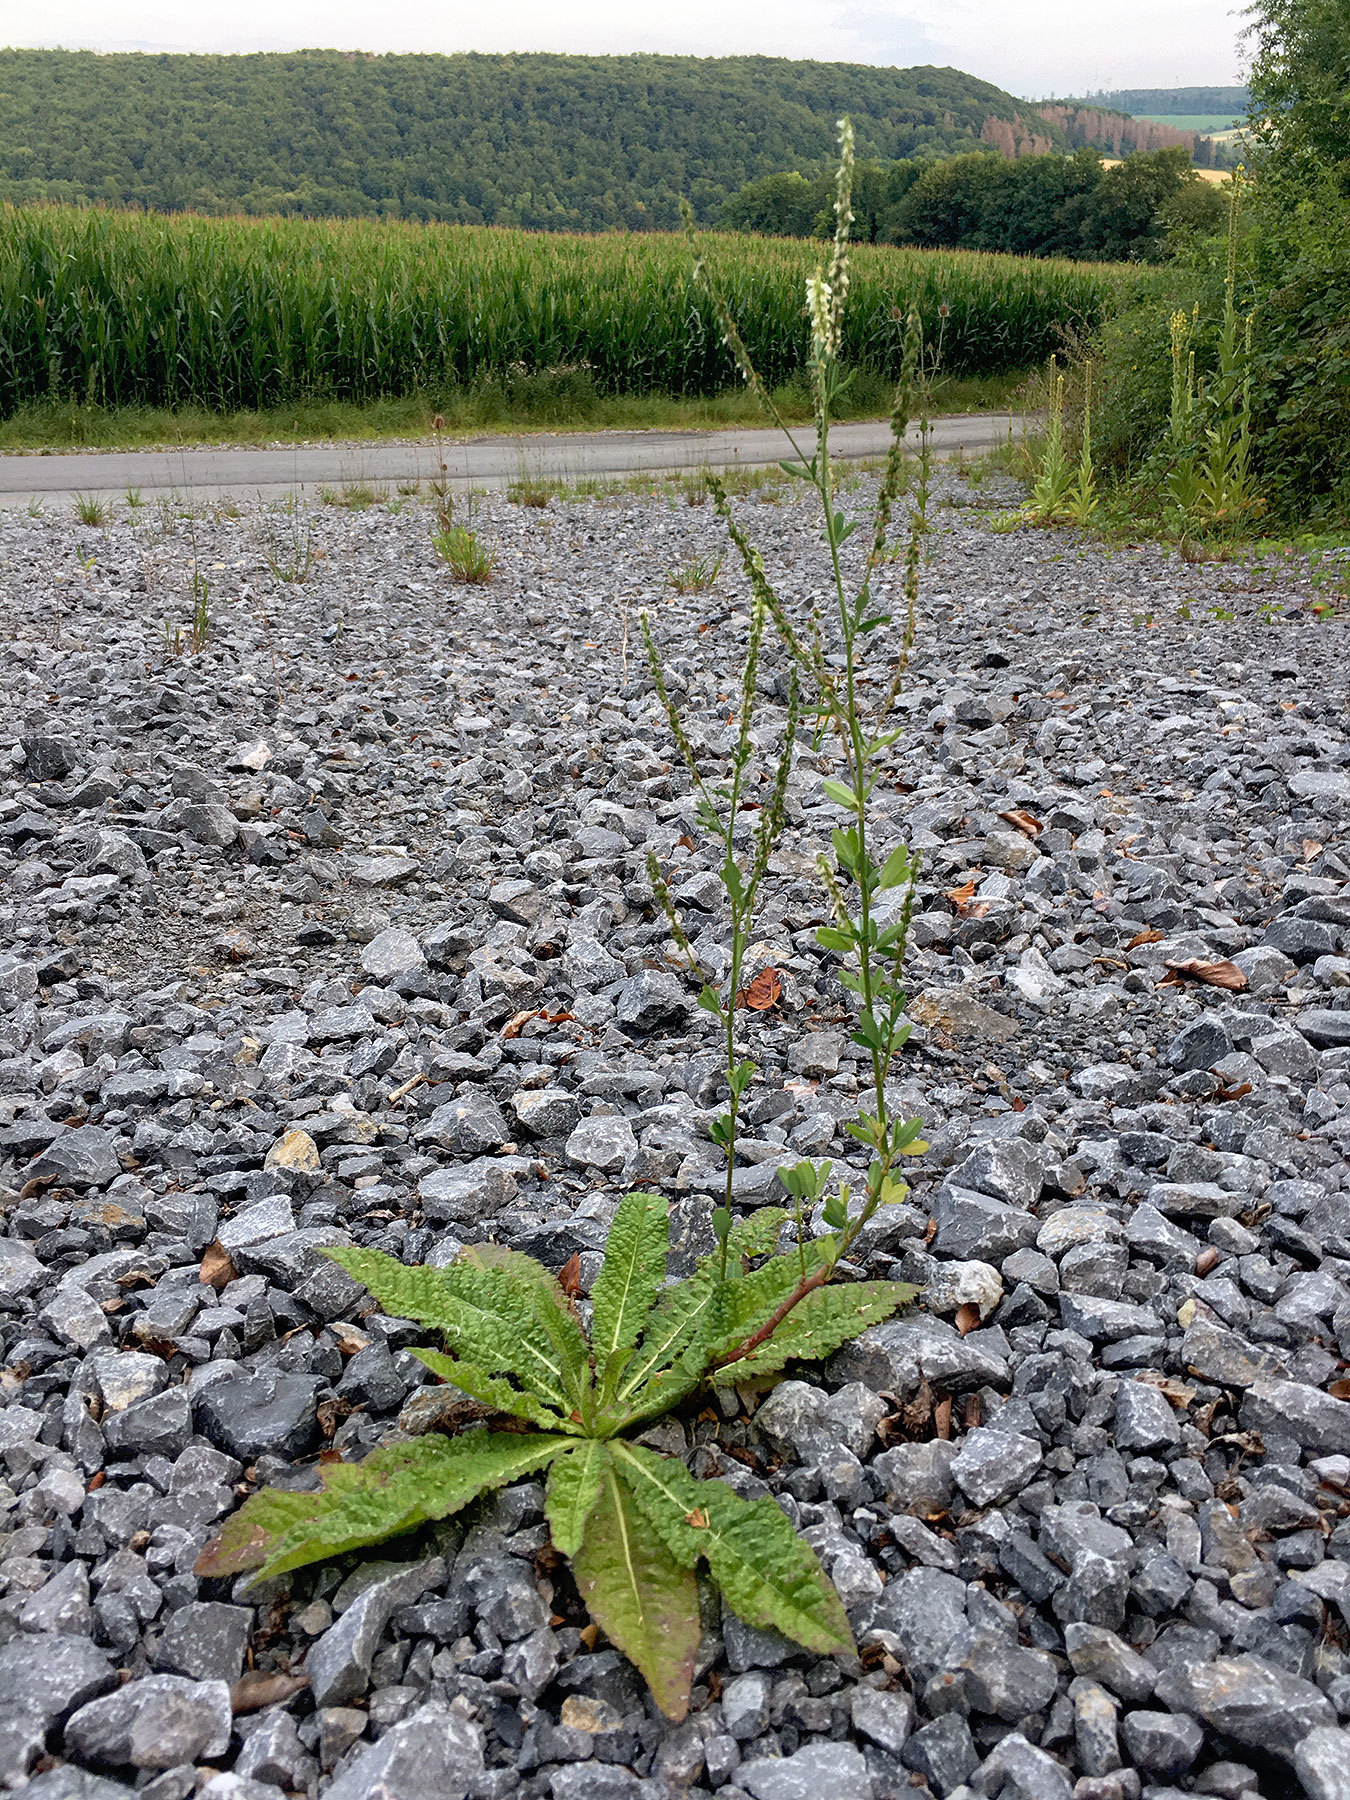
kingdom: Plantae
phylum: Tracheophyta
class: Magnoliopsida
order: Fabales
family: Fabaceae
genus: Melilotus
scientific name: Melilotus albus
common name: White melilot
